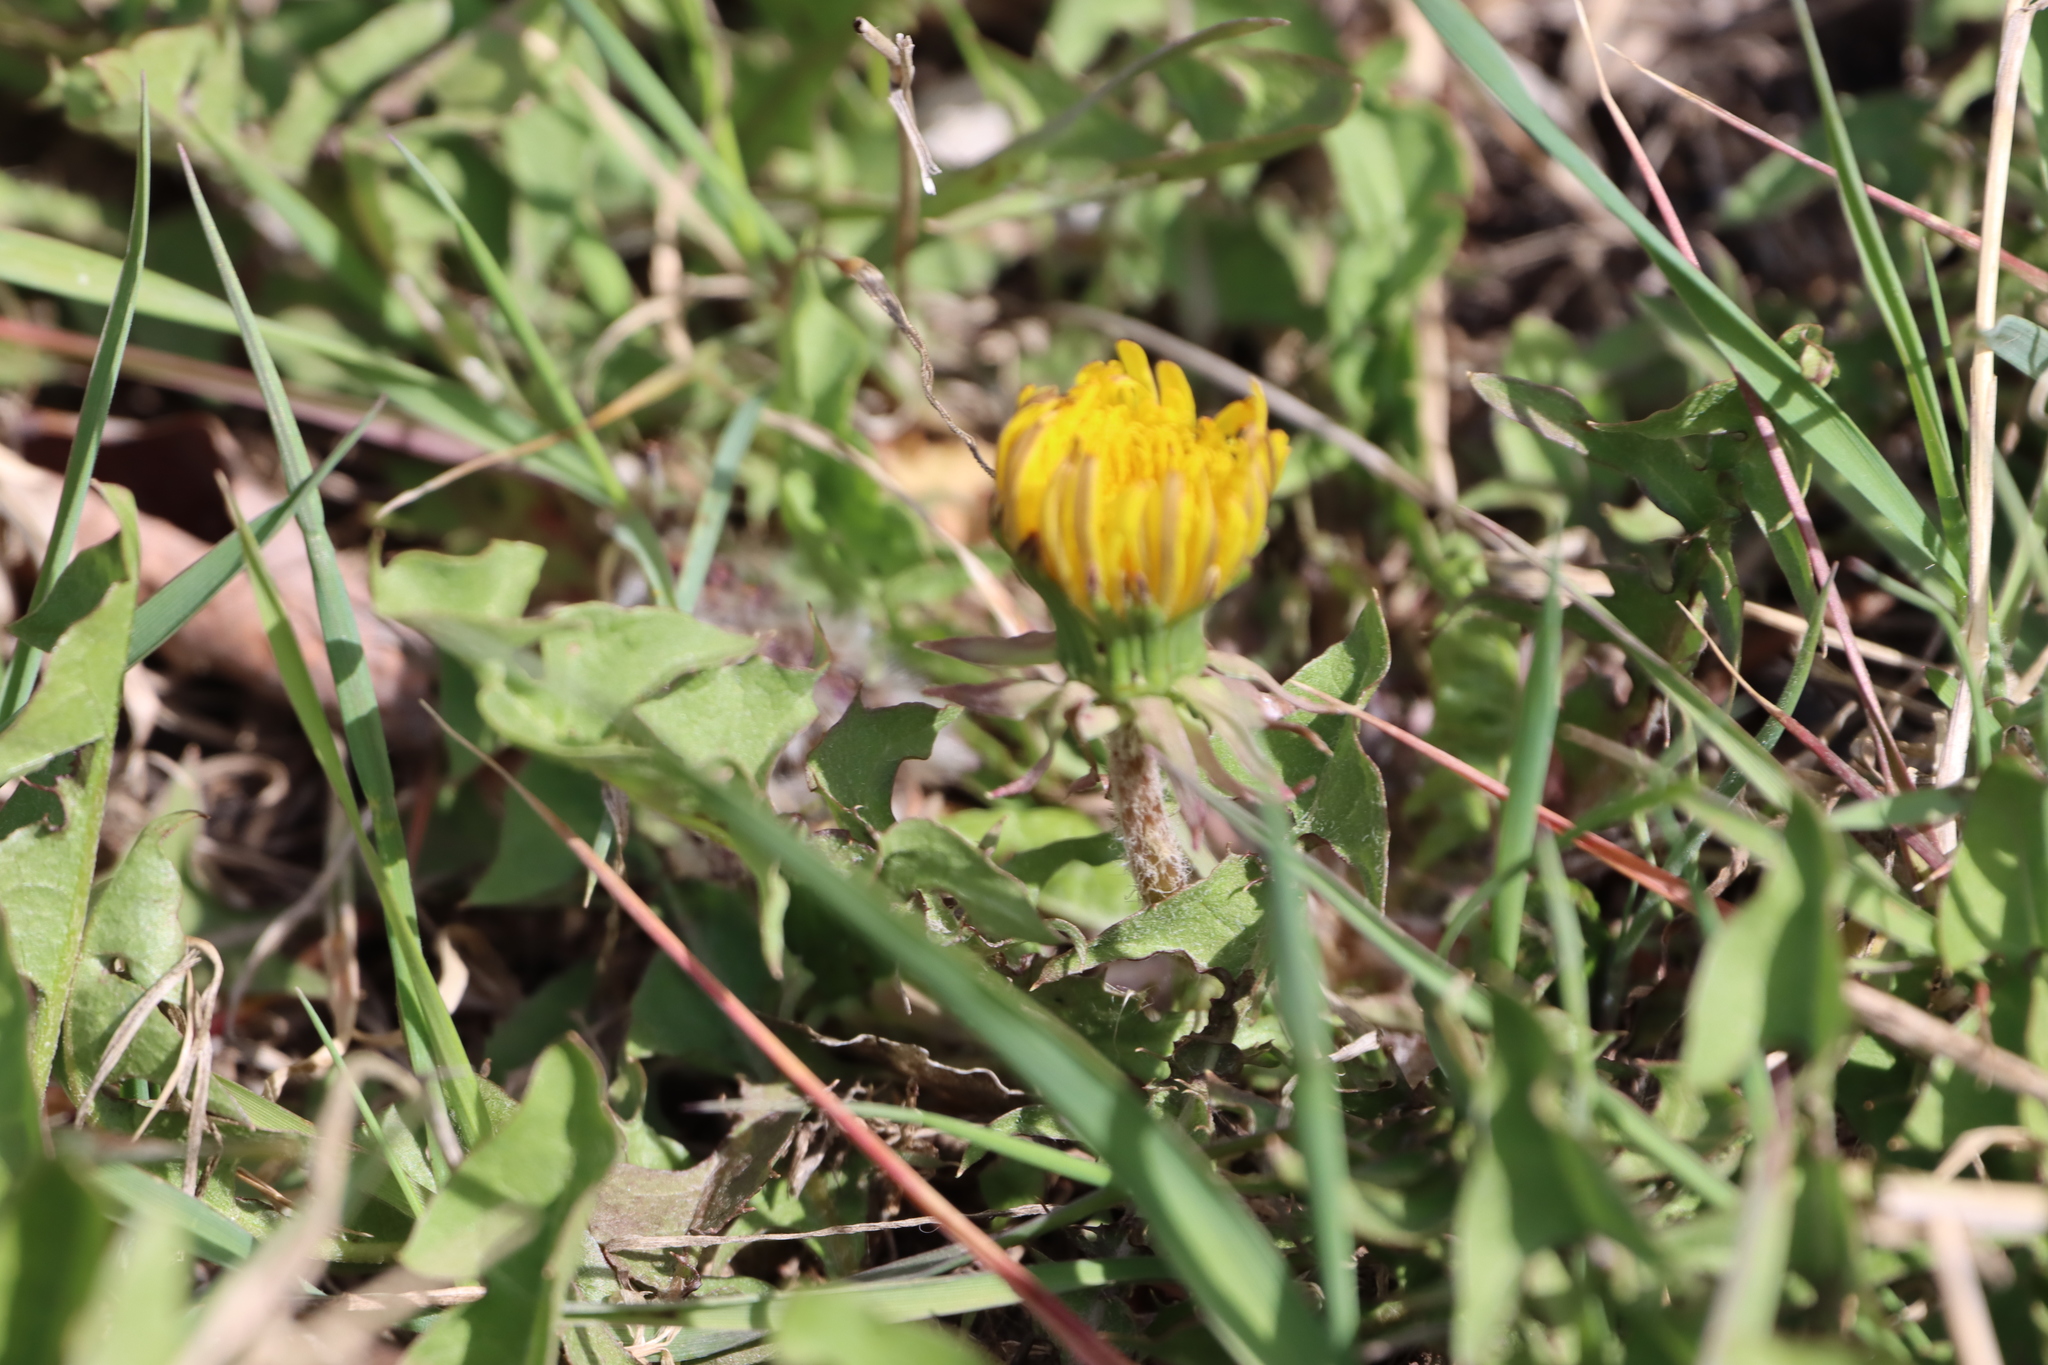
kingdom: Plantae
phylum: Tracheophyta
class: Magnoliopsida
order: Asterales
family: Asteraceae
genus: Taraxacum
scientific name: Taraxacum officinale
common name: Common dandelion
